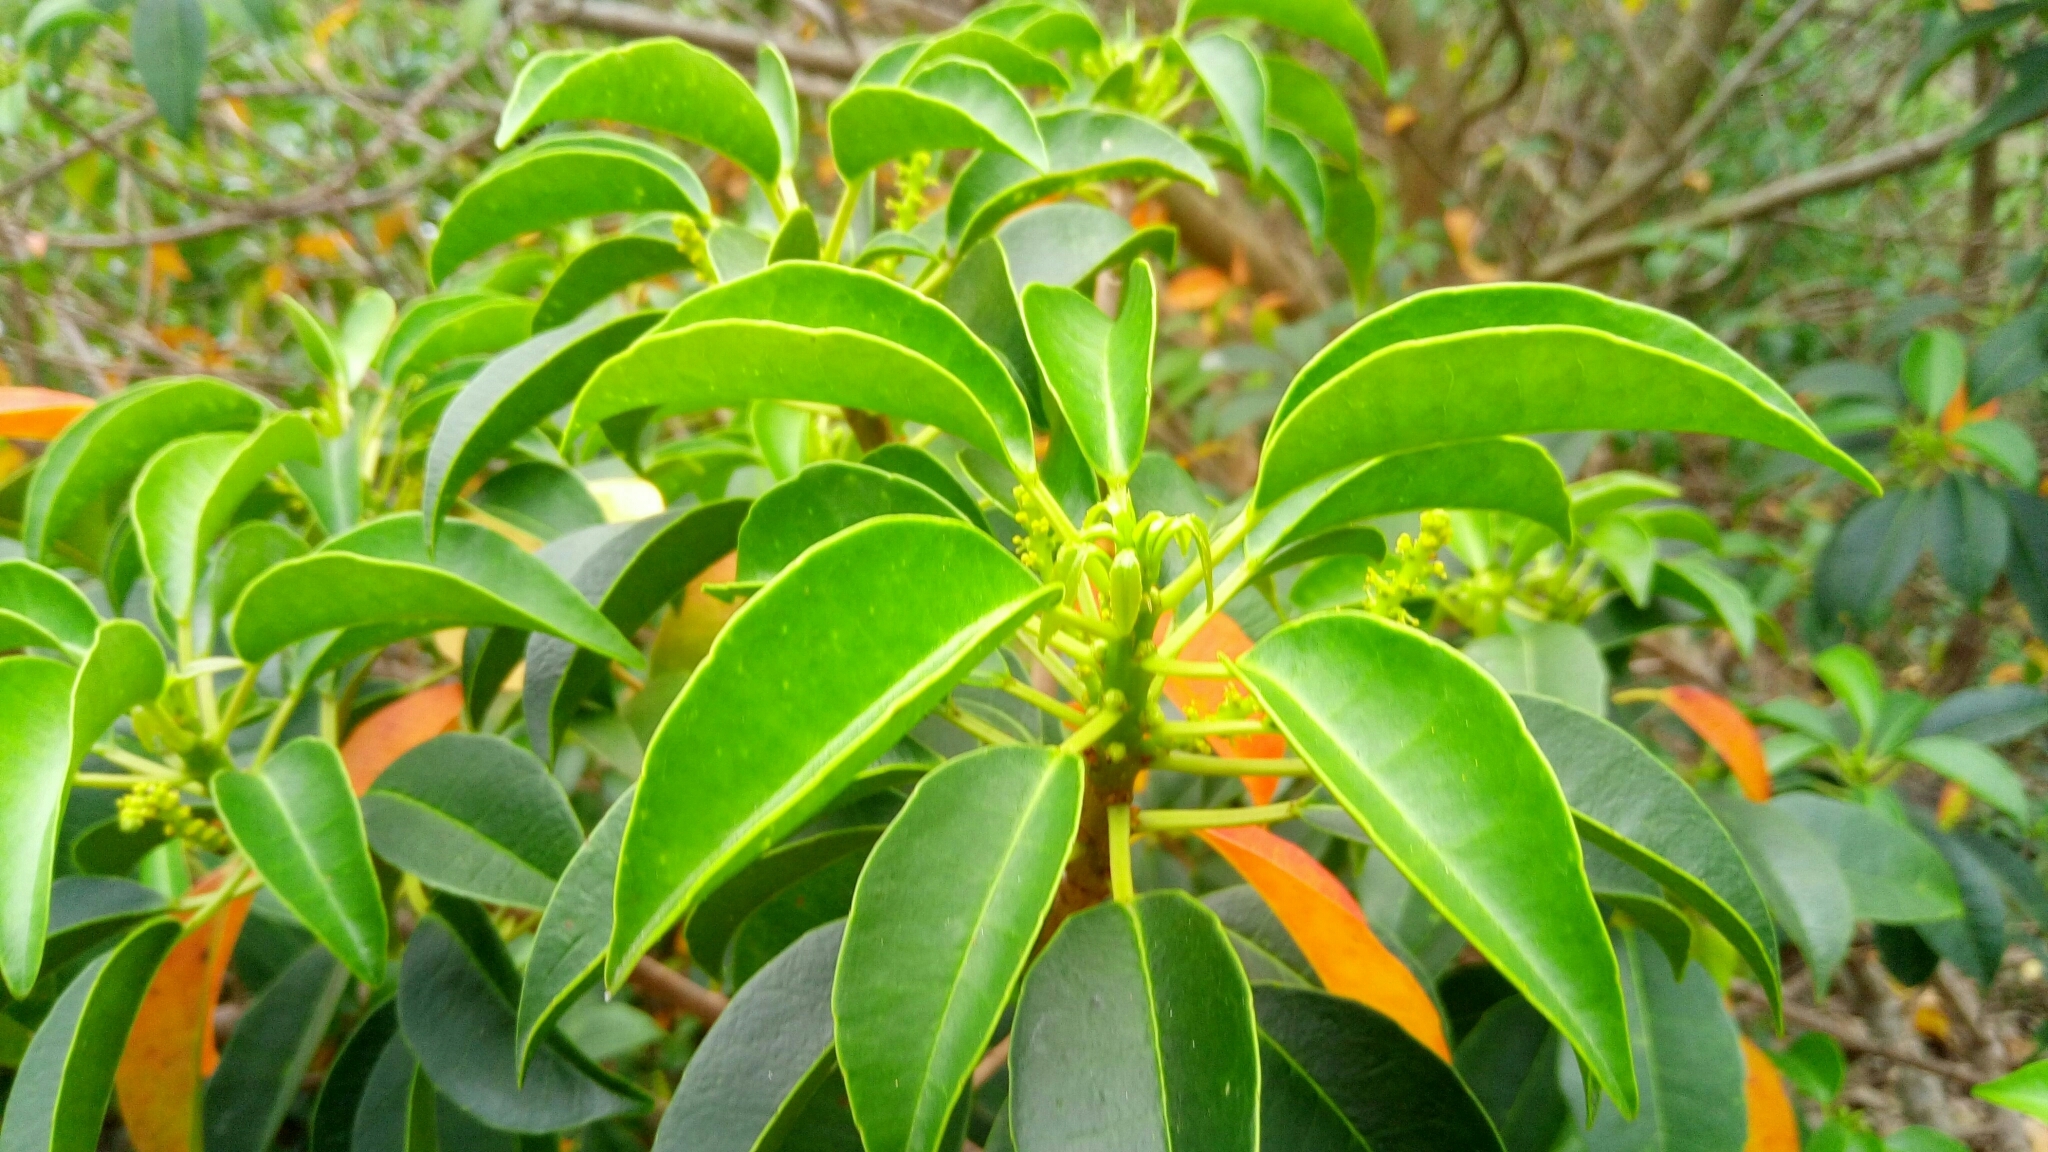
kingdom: Plantae
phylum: Tracheophyta
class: Magnoliopsida
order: Malpighiales
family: Euphorbiaceae
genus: Excoecaria
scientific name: Excoecaria agallocha
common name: River poisontree
